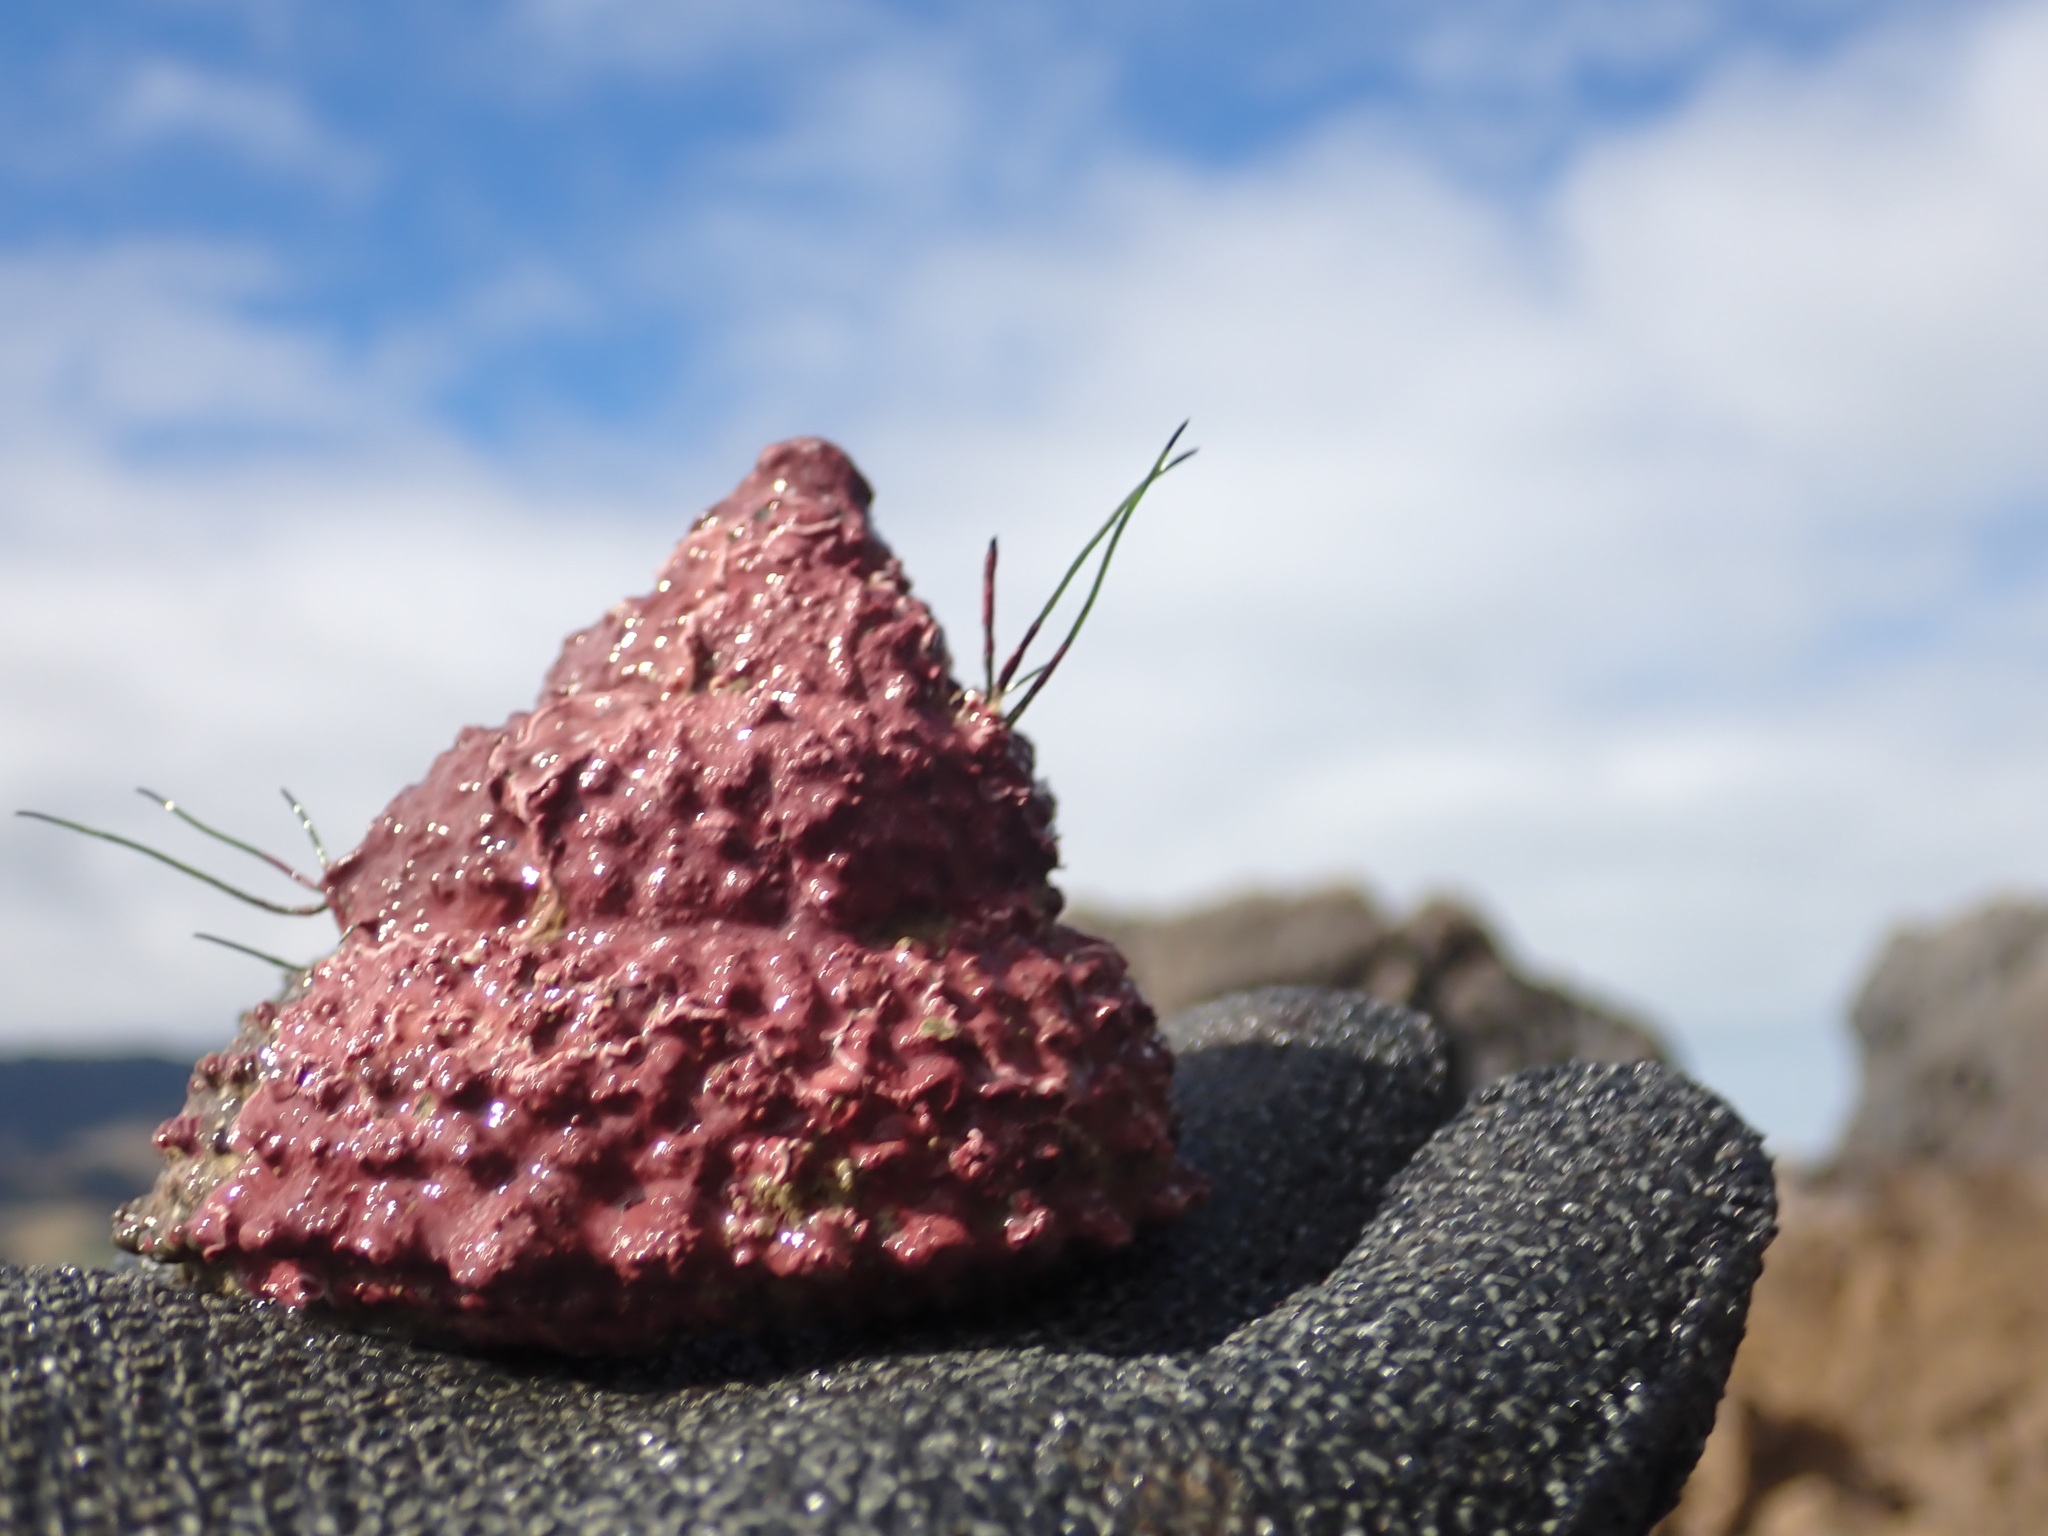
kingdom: Animalia
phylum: Mollusca
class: Gastropoda
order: Trochida
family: Turbinidae
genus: Cookia
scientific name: Cookia sulcata
